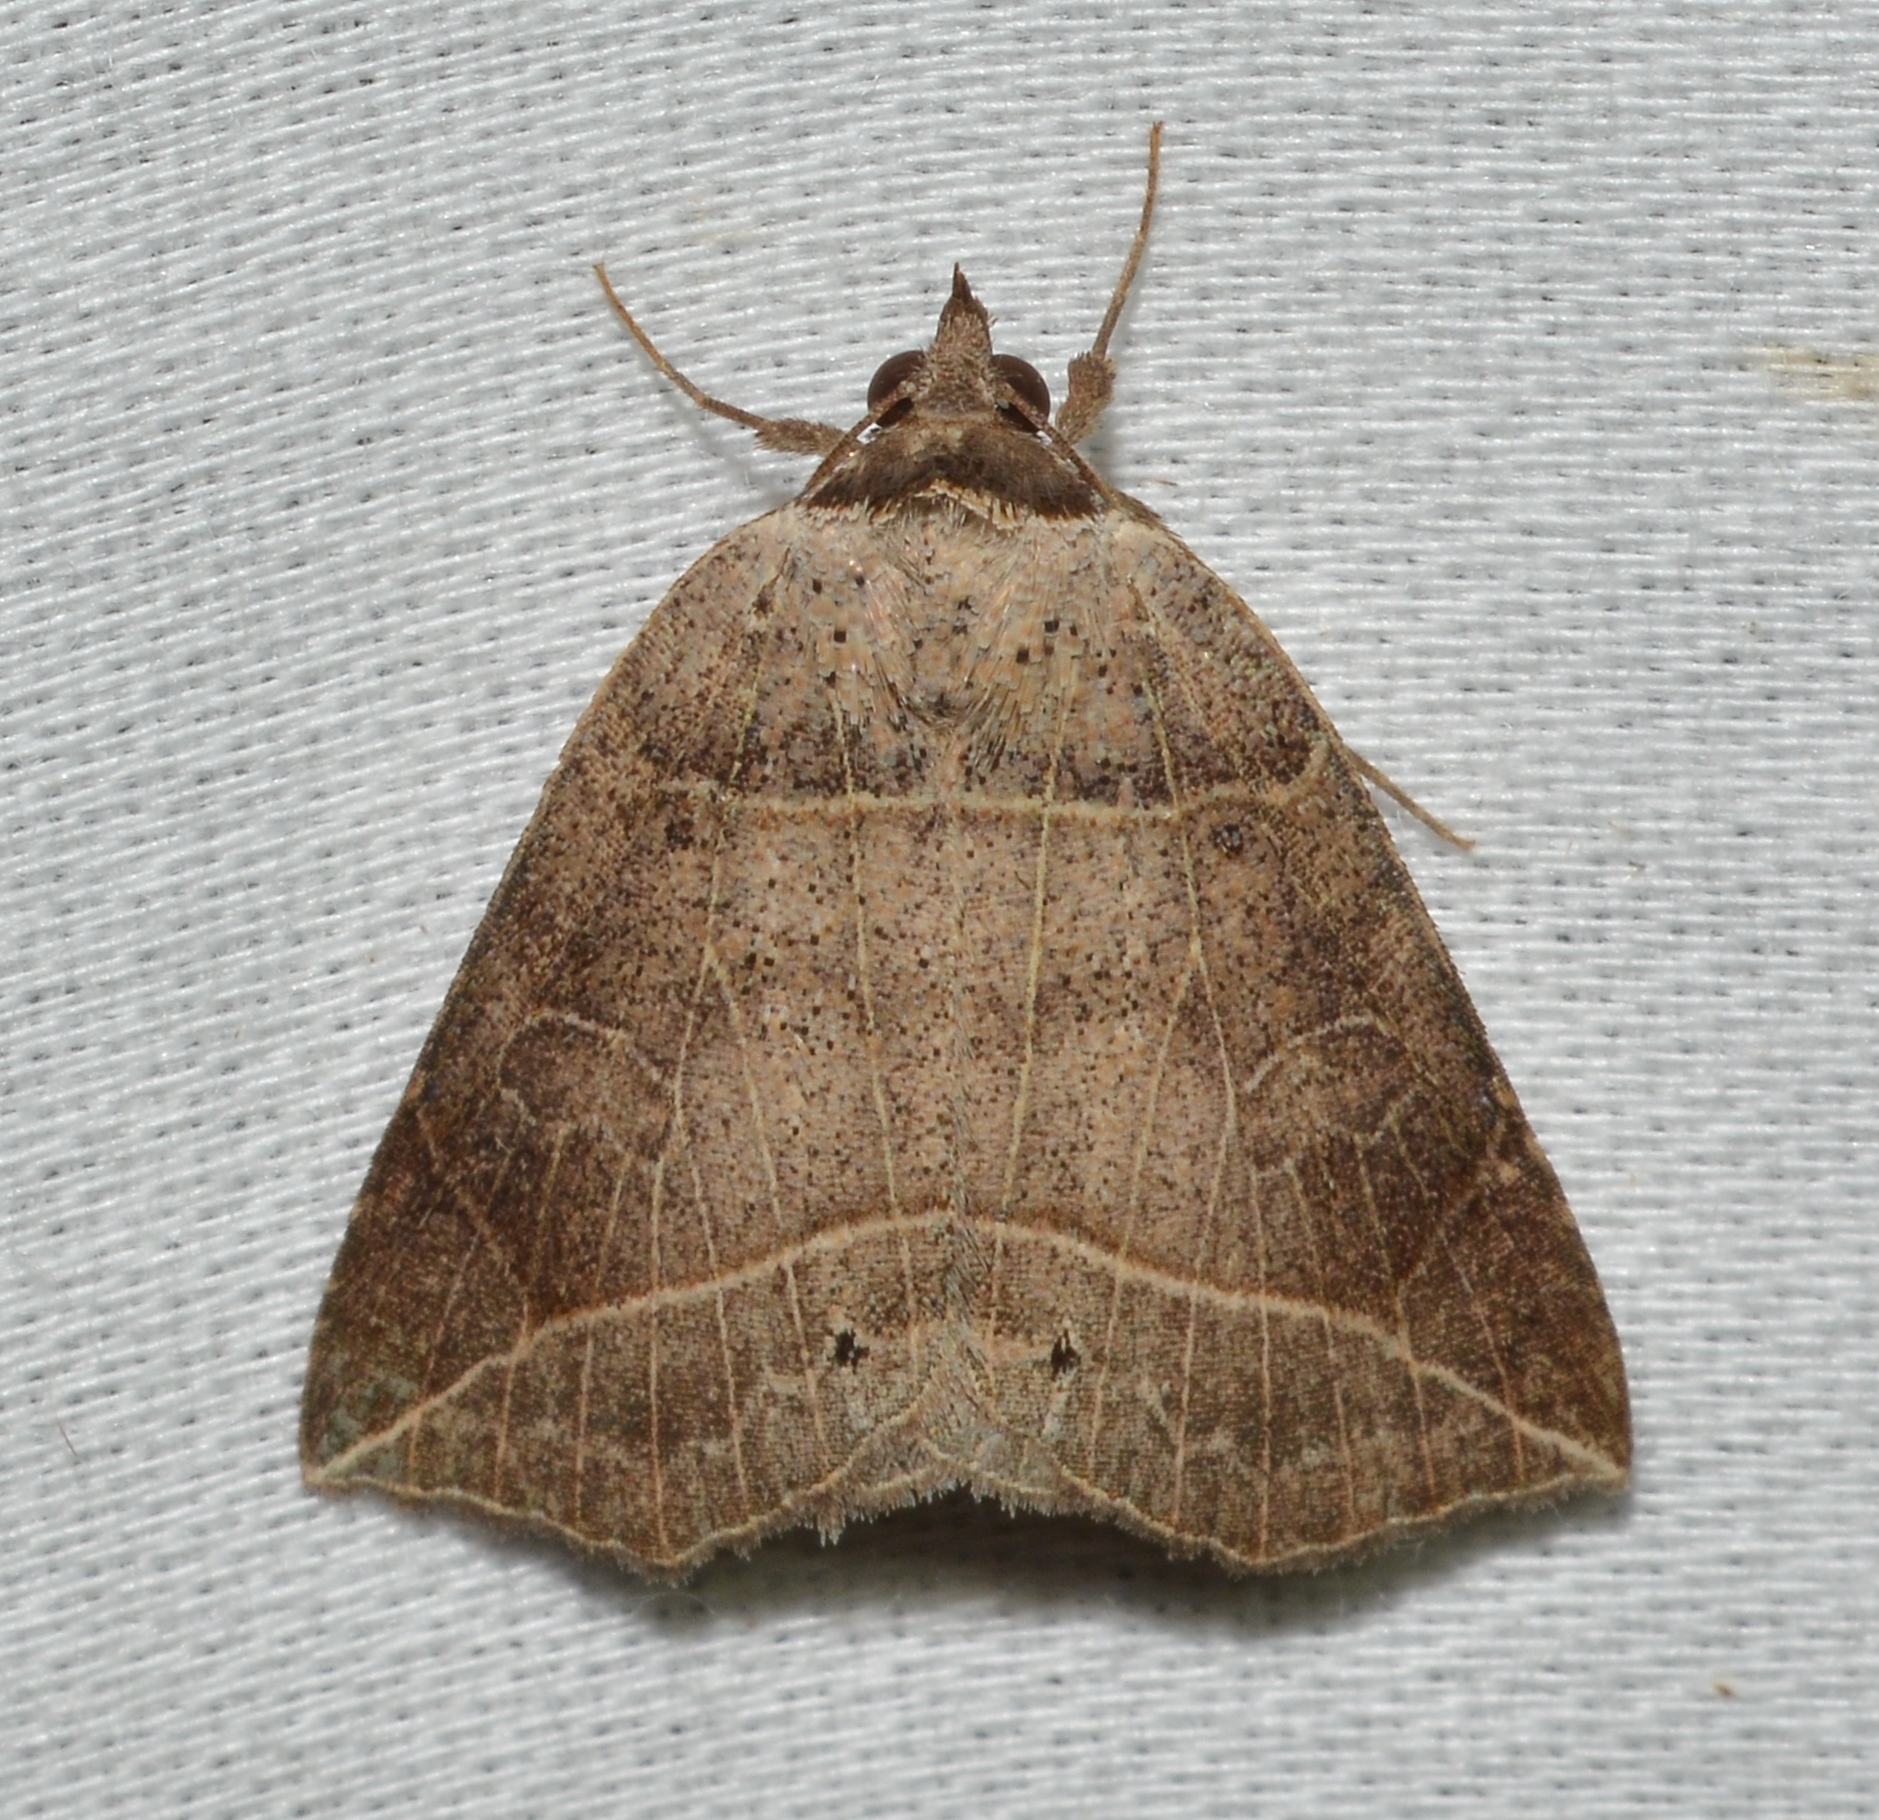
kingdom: Animalia
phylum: Arthropoda
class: Insecta
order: Lepidoptera
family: Erebidae
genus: Isogona
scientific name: Isogona tenuis
